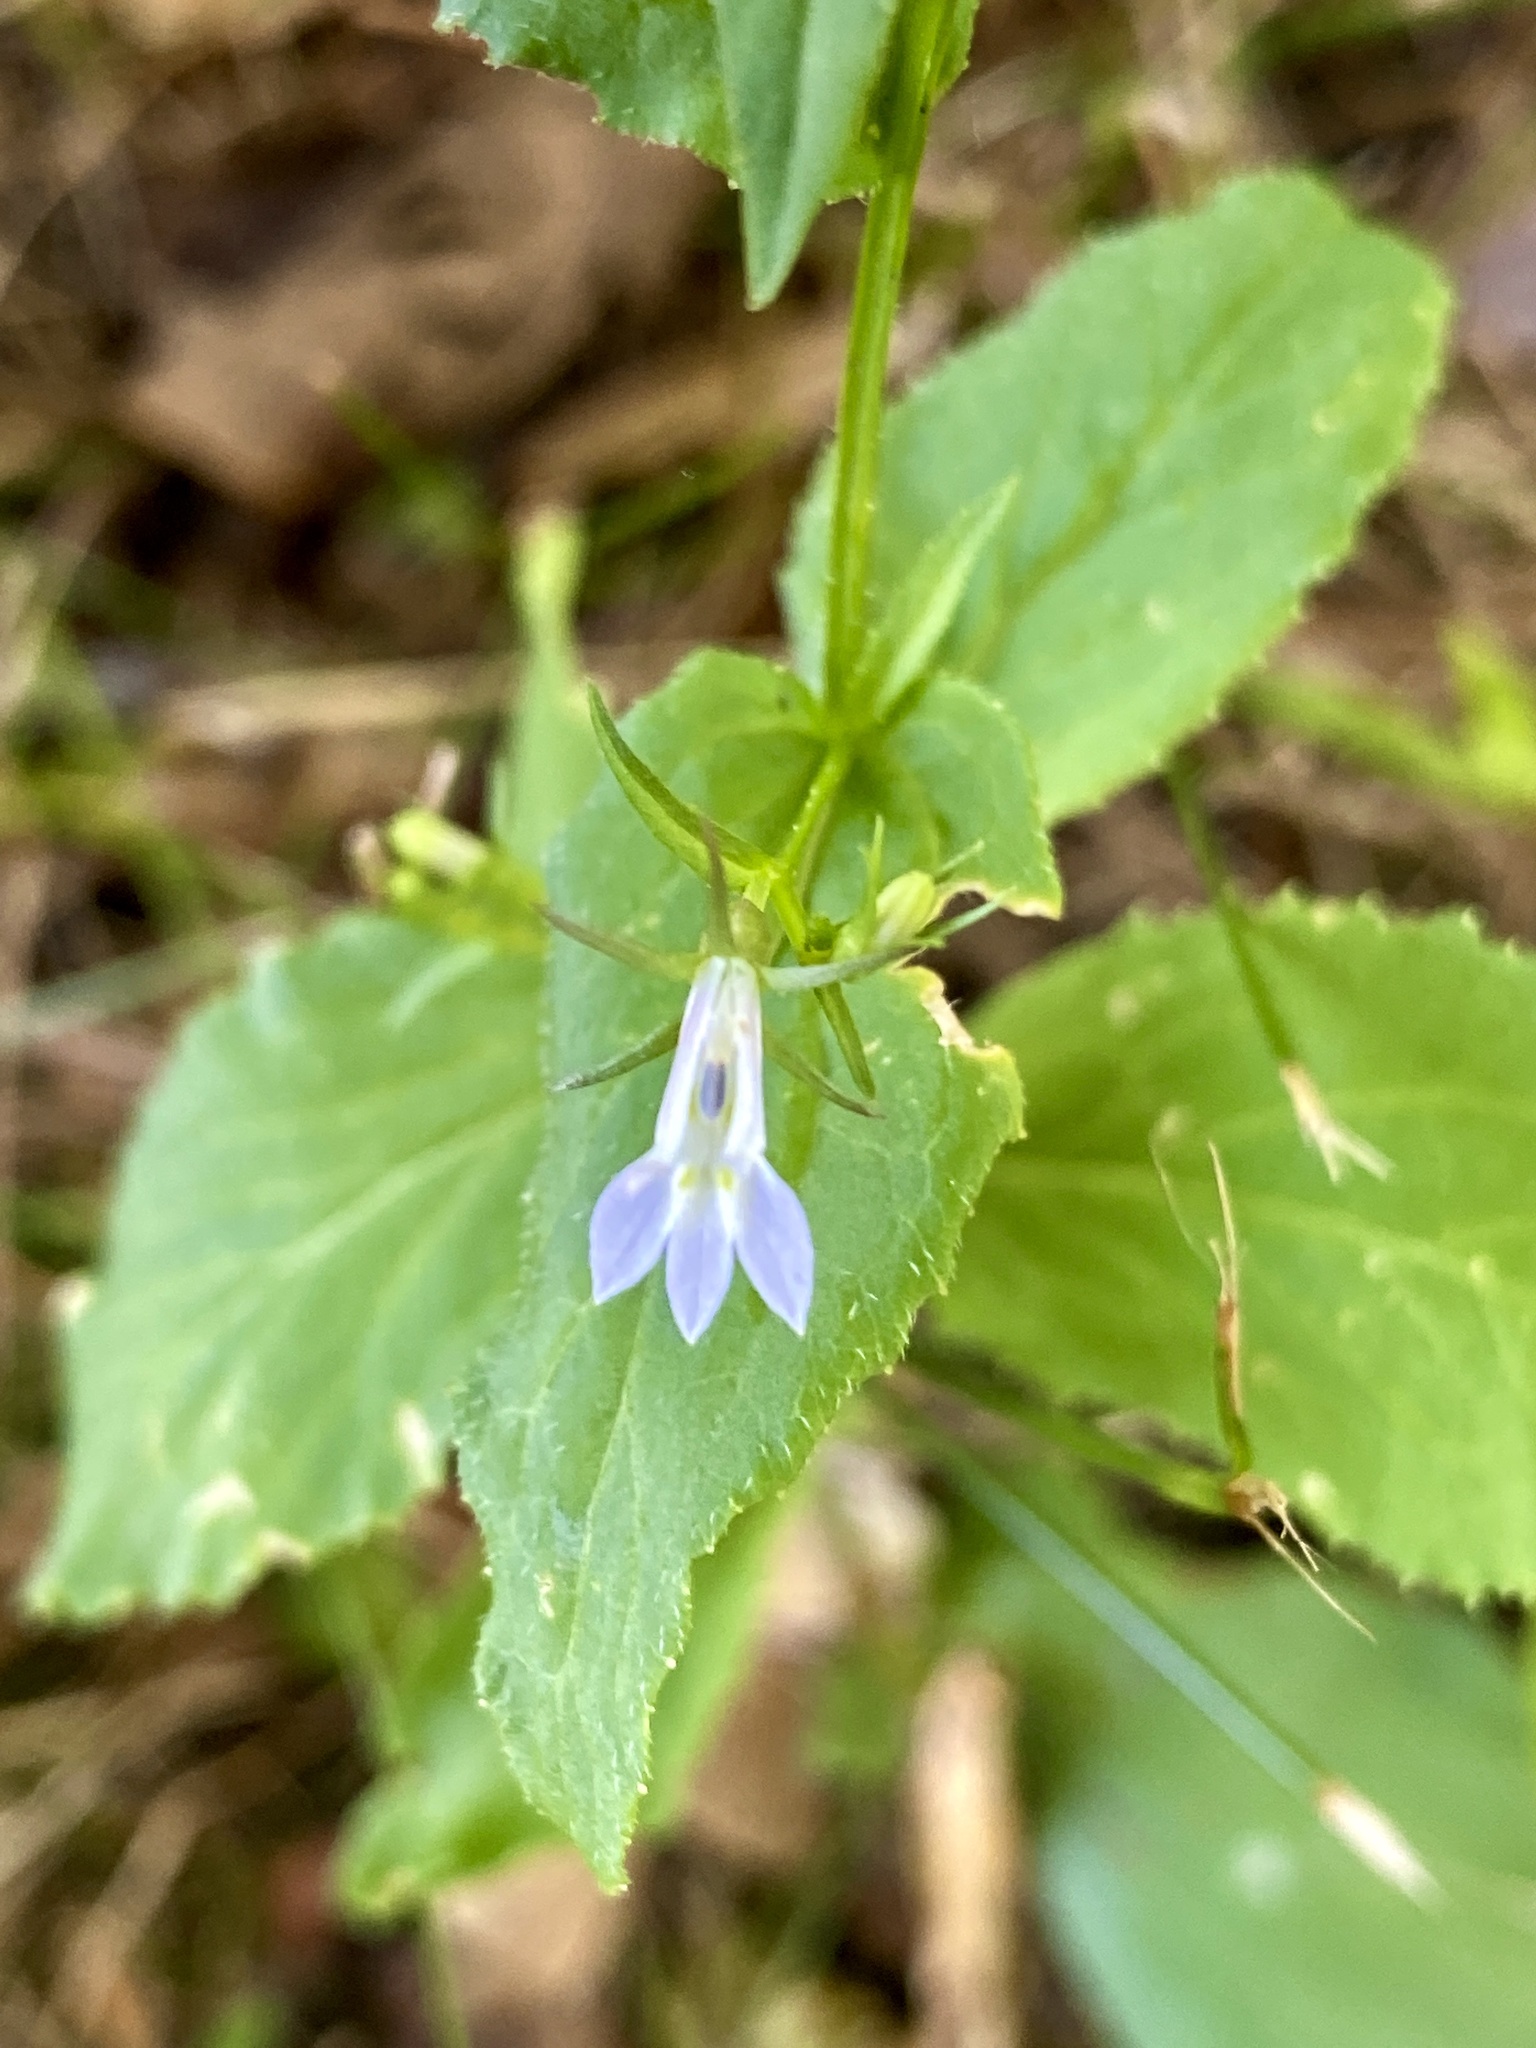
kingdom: Plantae
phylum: Tracheophyta
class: Magnoliopsida
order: Asterales
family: Campanulaceae
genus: Lobelia
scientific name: Lobelia inflata
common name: Indian tobacco
